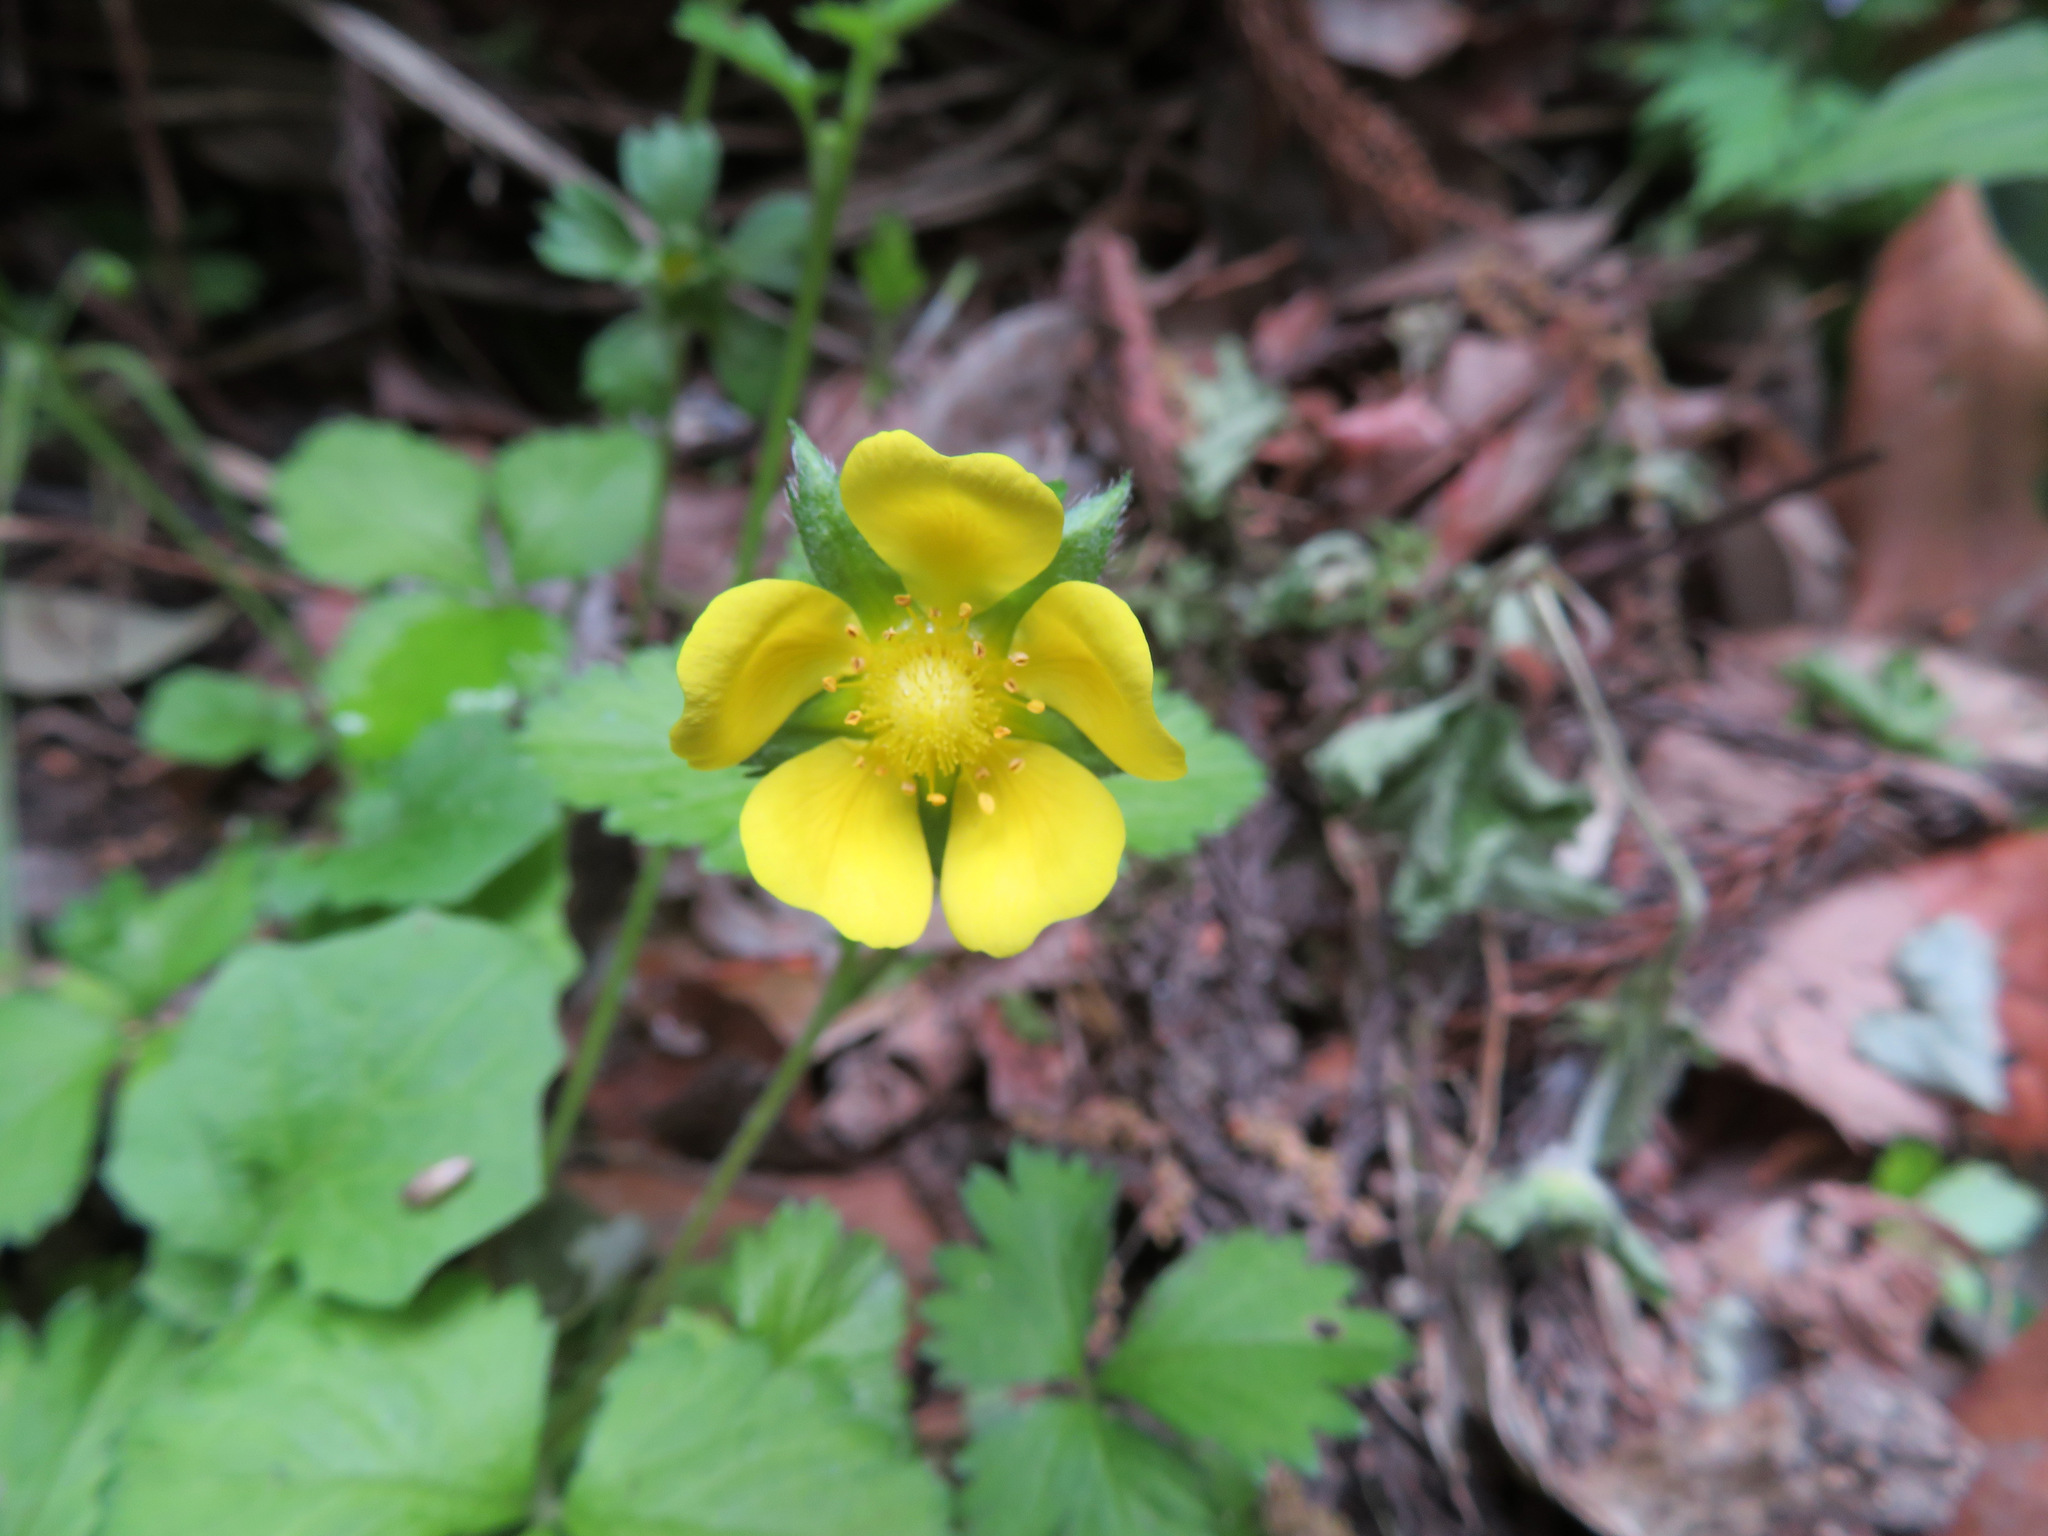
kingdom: Plantae
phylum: Tracheophyta
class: Magnoliopsida
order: Rosales
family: Rosaceae
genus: Potentilla
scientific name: Potentilla indica
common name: Yellow-flowered strawberry
